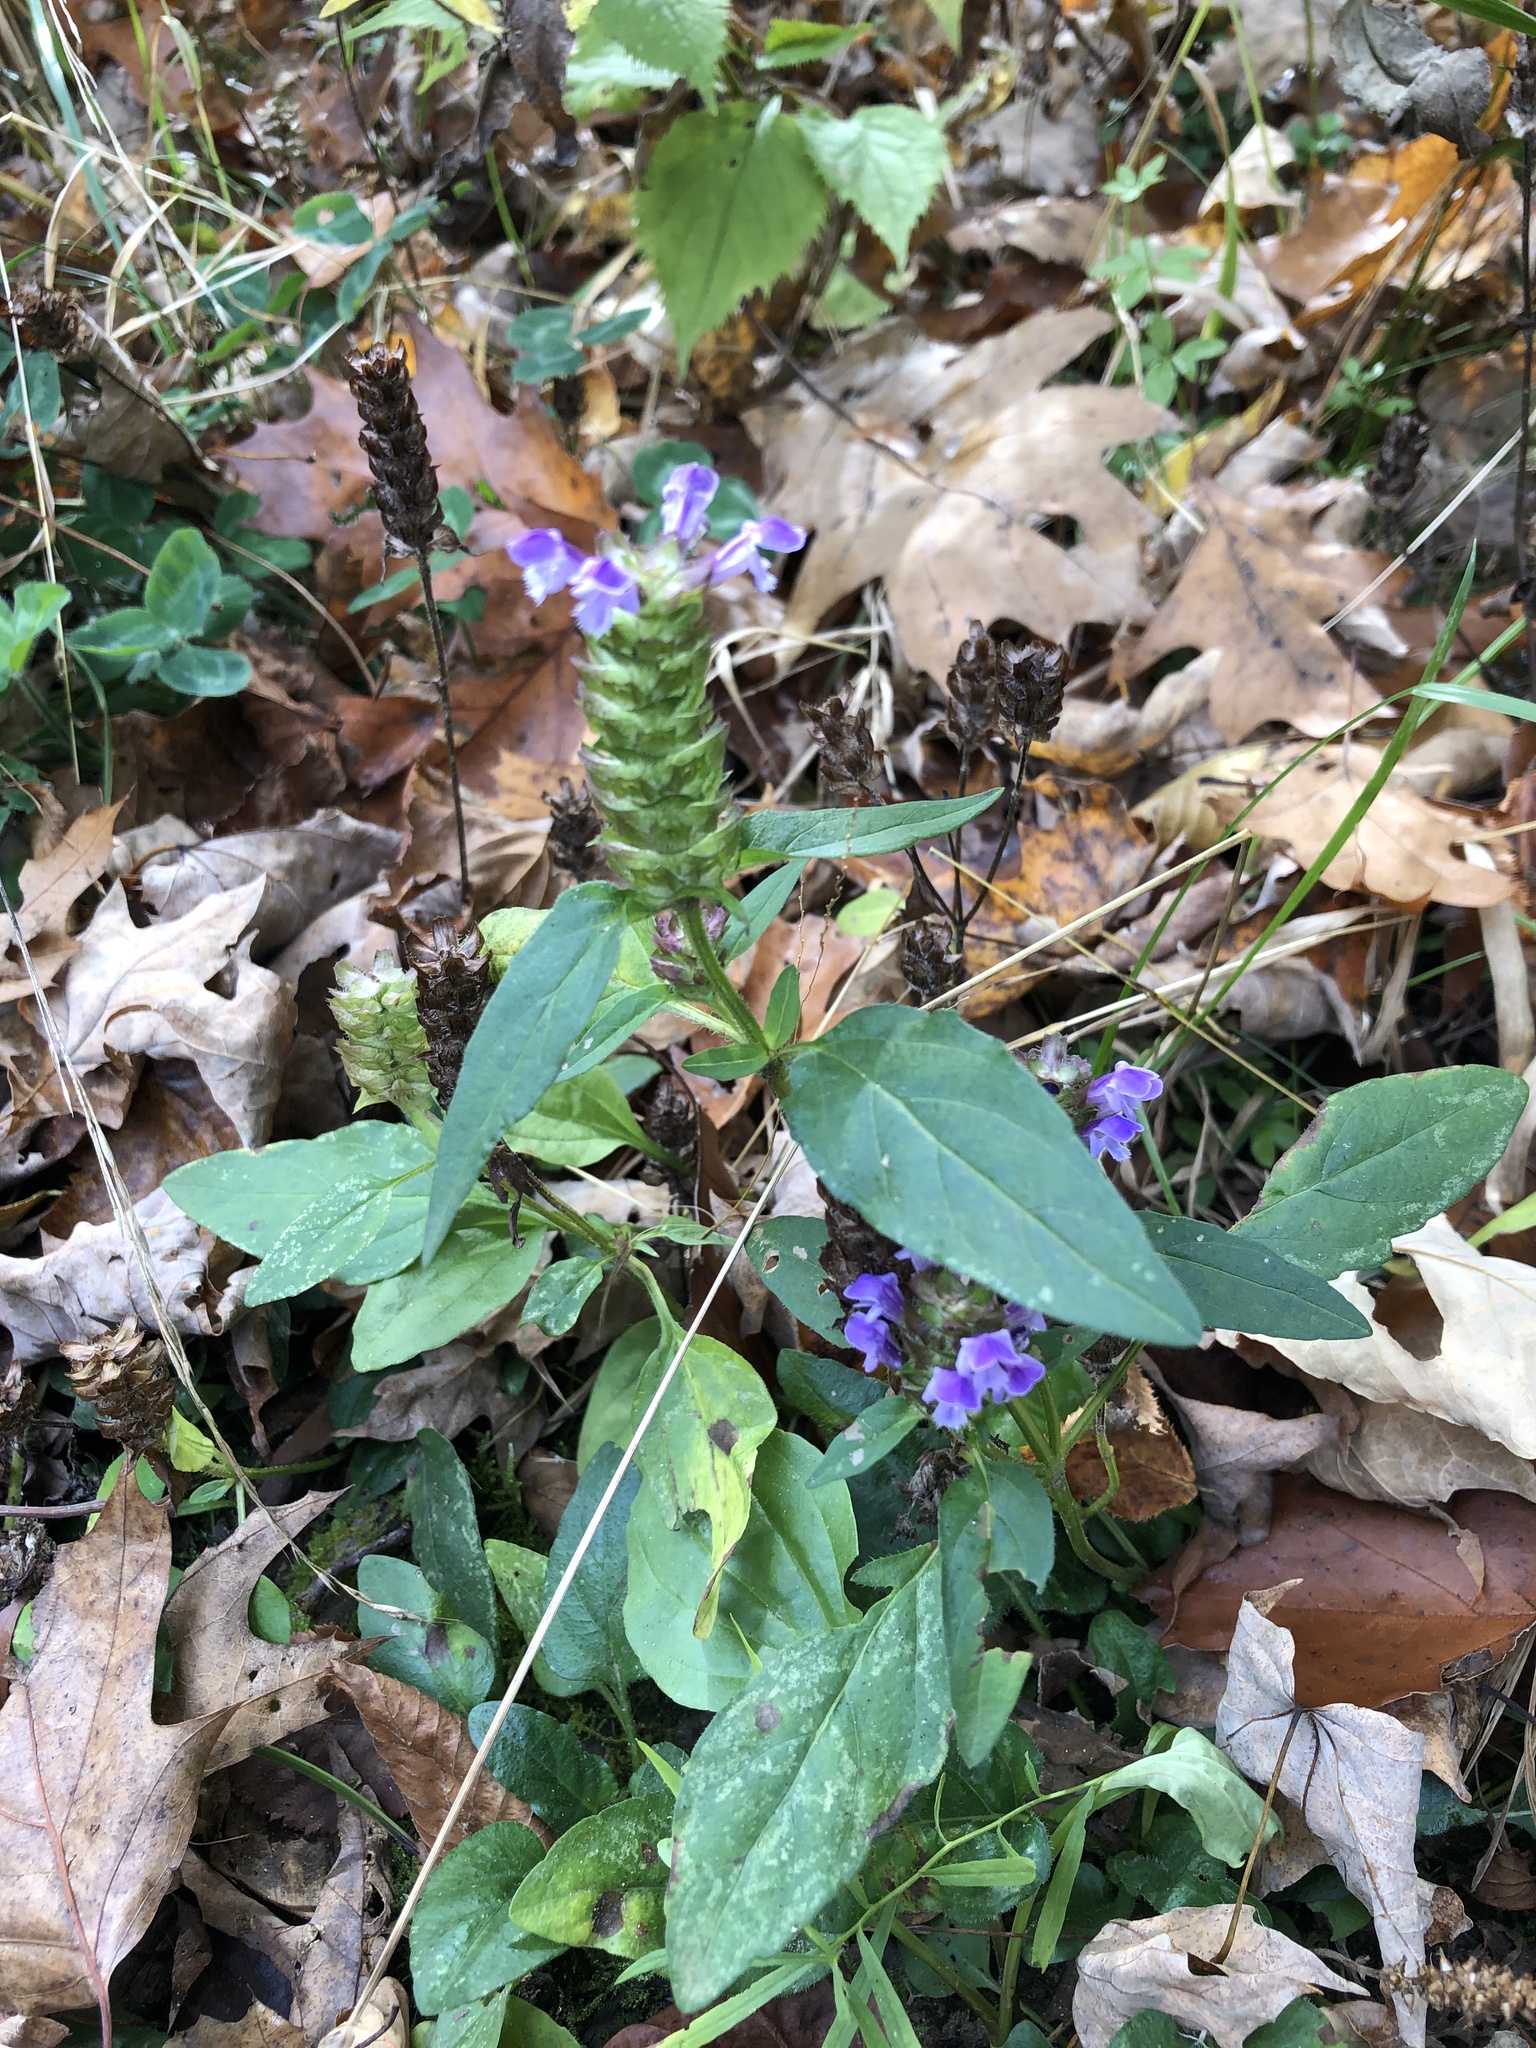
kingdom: Plantae
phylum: Tracheophyta
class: Magnoliopsida
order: Lamiales
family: Lamiaceae
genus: Prunella
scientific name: Prunella vulgaris
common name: Heal-all
